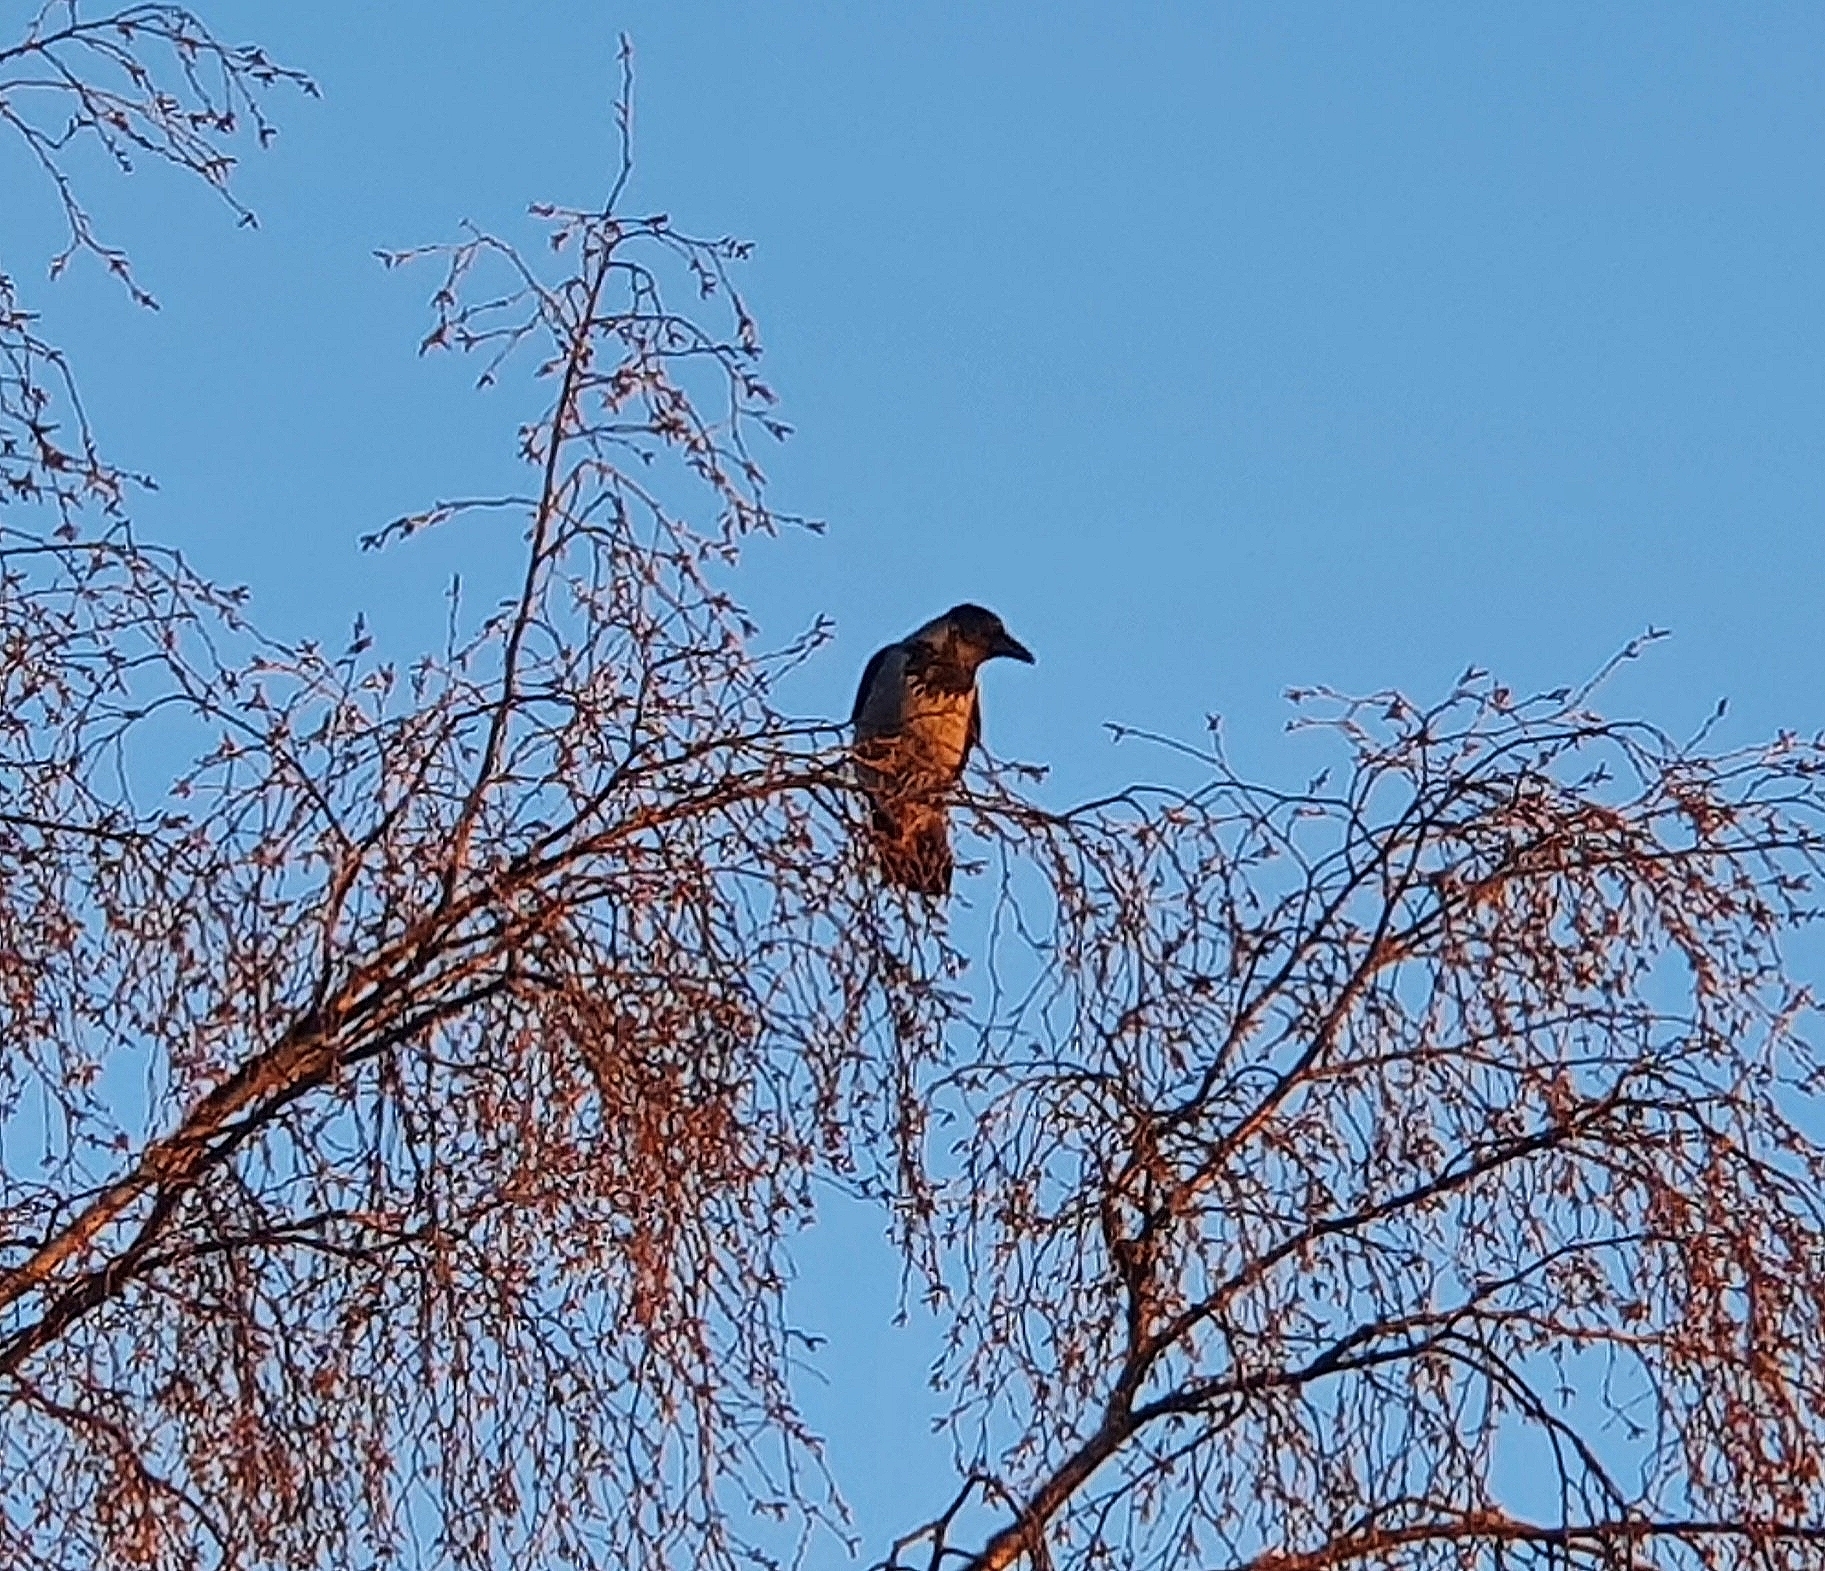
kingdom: Animalia
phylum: Chordata
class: Aves
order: Passeriformes
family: Corvidae
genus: Corvus
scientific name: Corvus cornix
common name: Hooded crow
